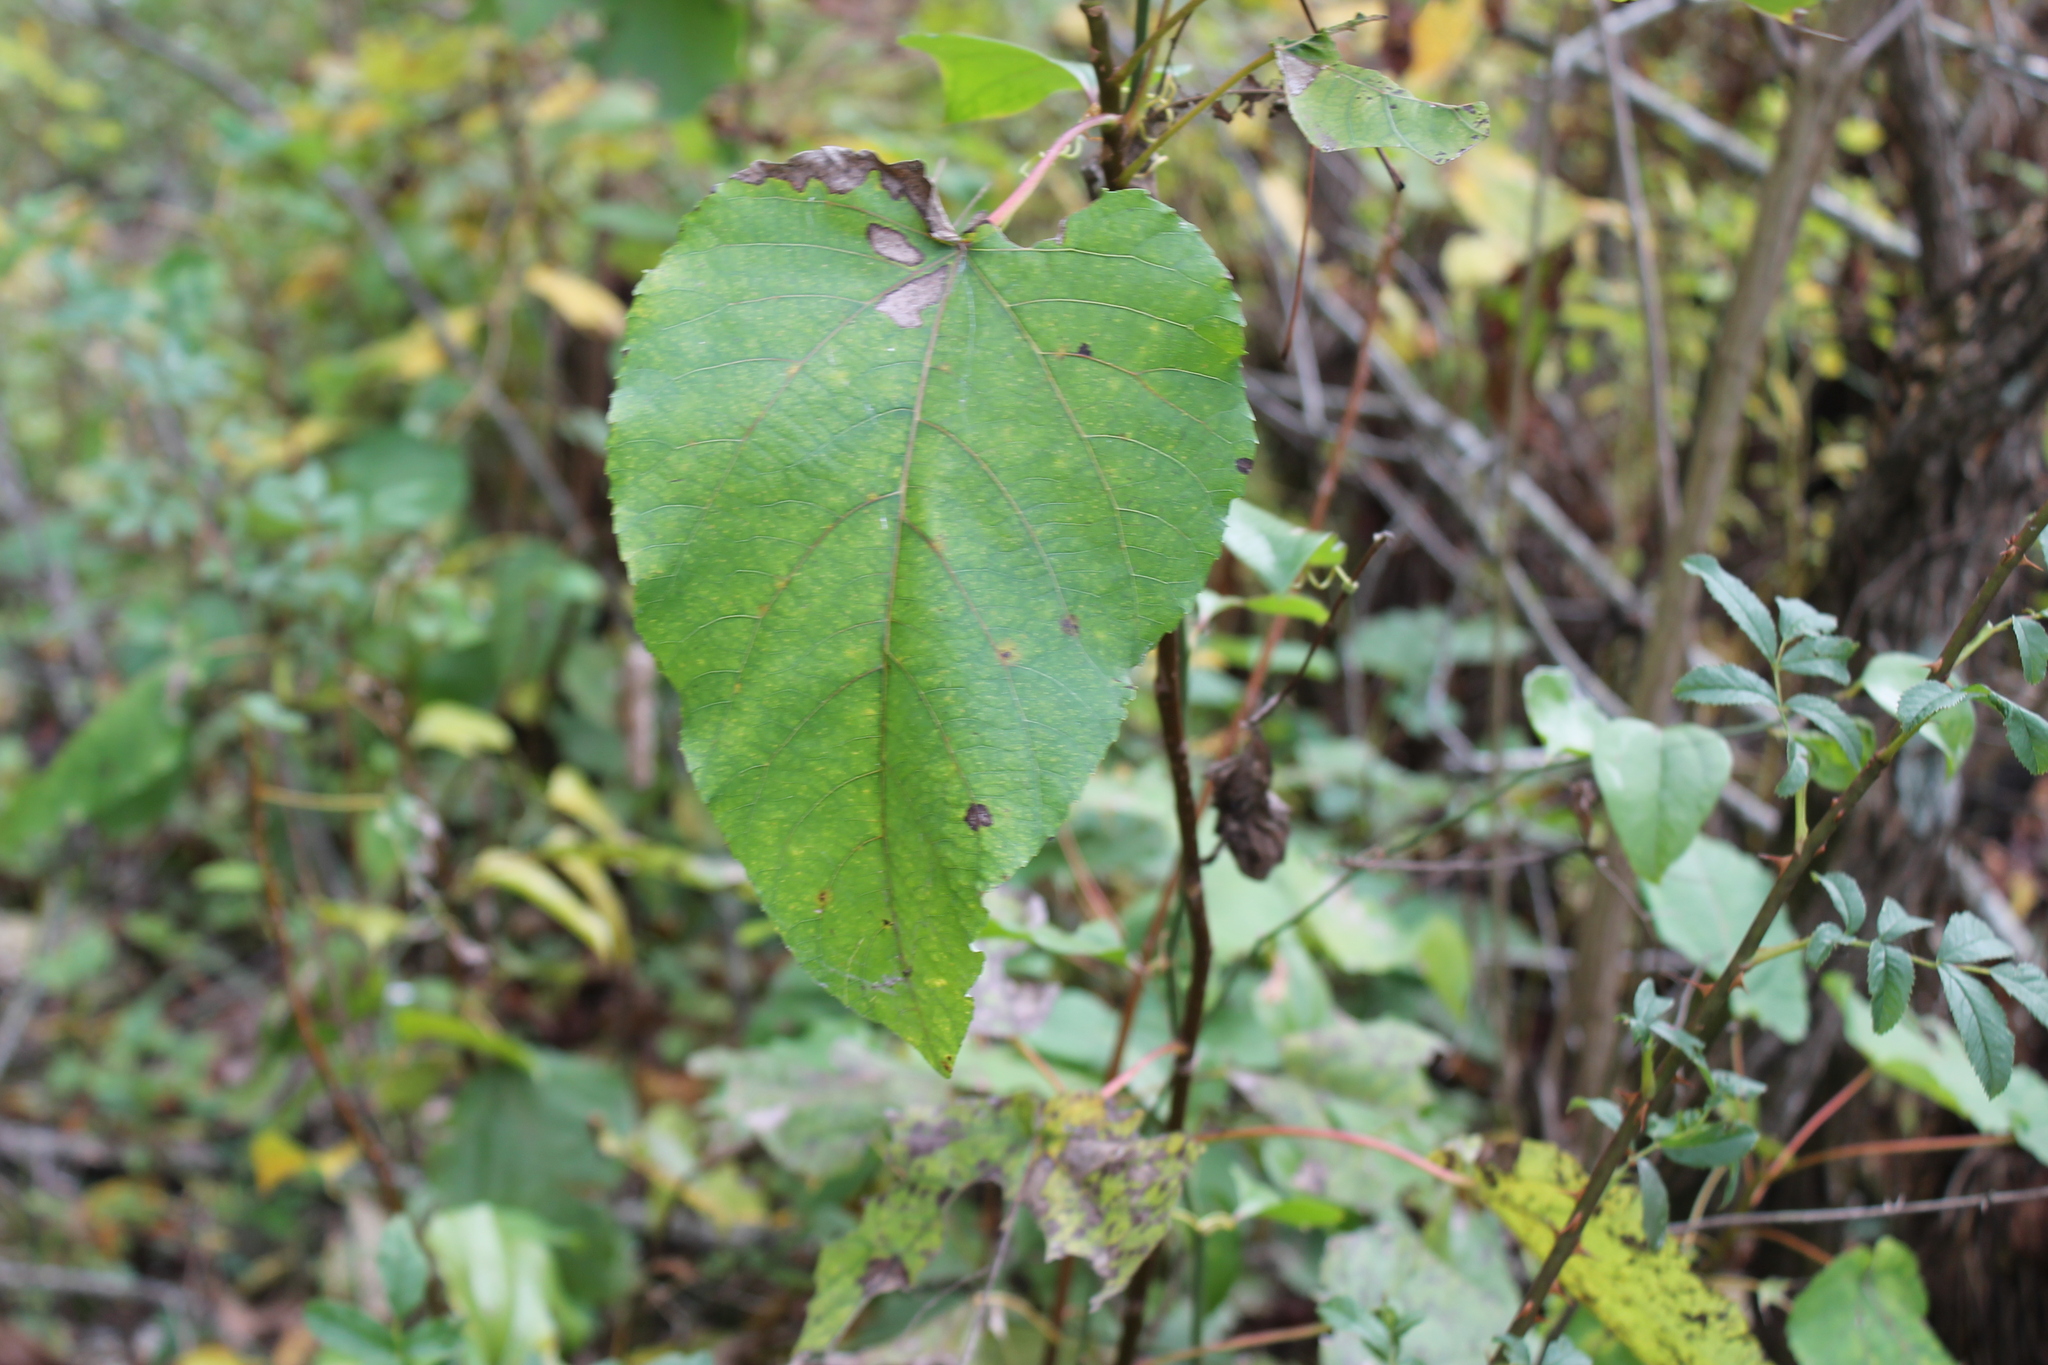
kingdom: Plantae
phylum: Tracheophyta
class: Magnoliopsida
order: Malpighiales
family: Salicaceae
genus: Populus
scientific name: Populus heterophylla
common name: Downy poplar
